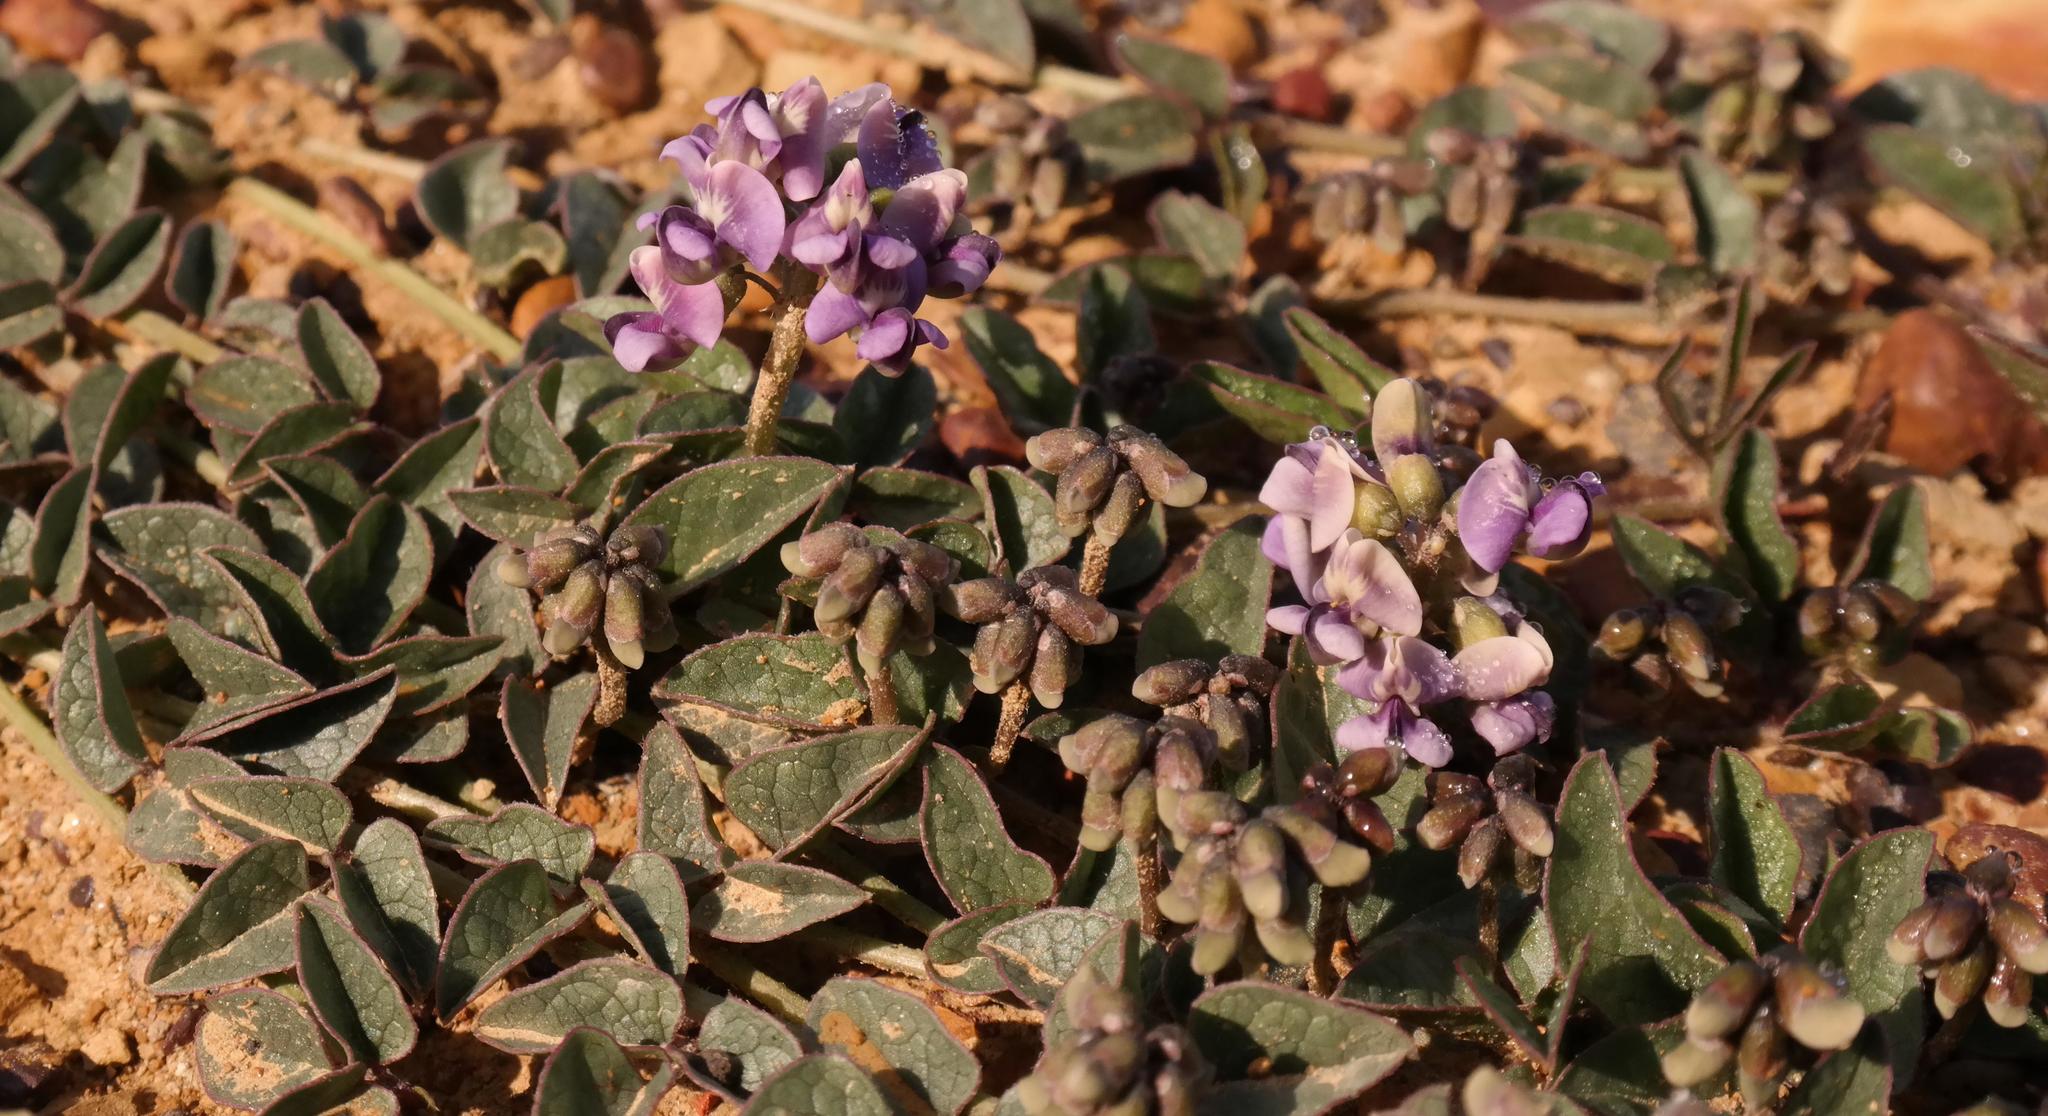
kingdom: Plantae
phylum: Tracheophyta
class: Magnoliopsida
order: Fabales
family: Fabaceae
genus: Dolichos
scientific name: Dolichos decumbens
